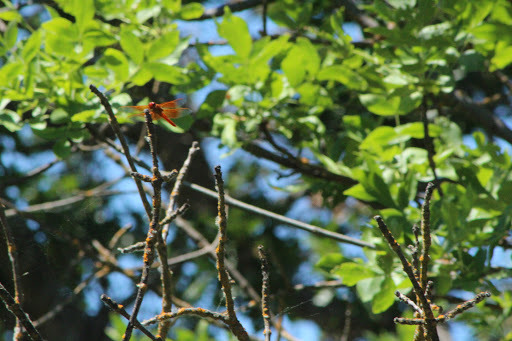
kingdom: Animalia
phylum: Arthropoda
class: Insecta
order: Odonata
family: Libellulidae
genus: Libellula
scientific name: Libellula saturata
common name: Flame skimmer
